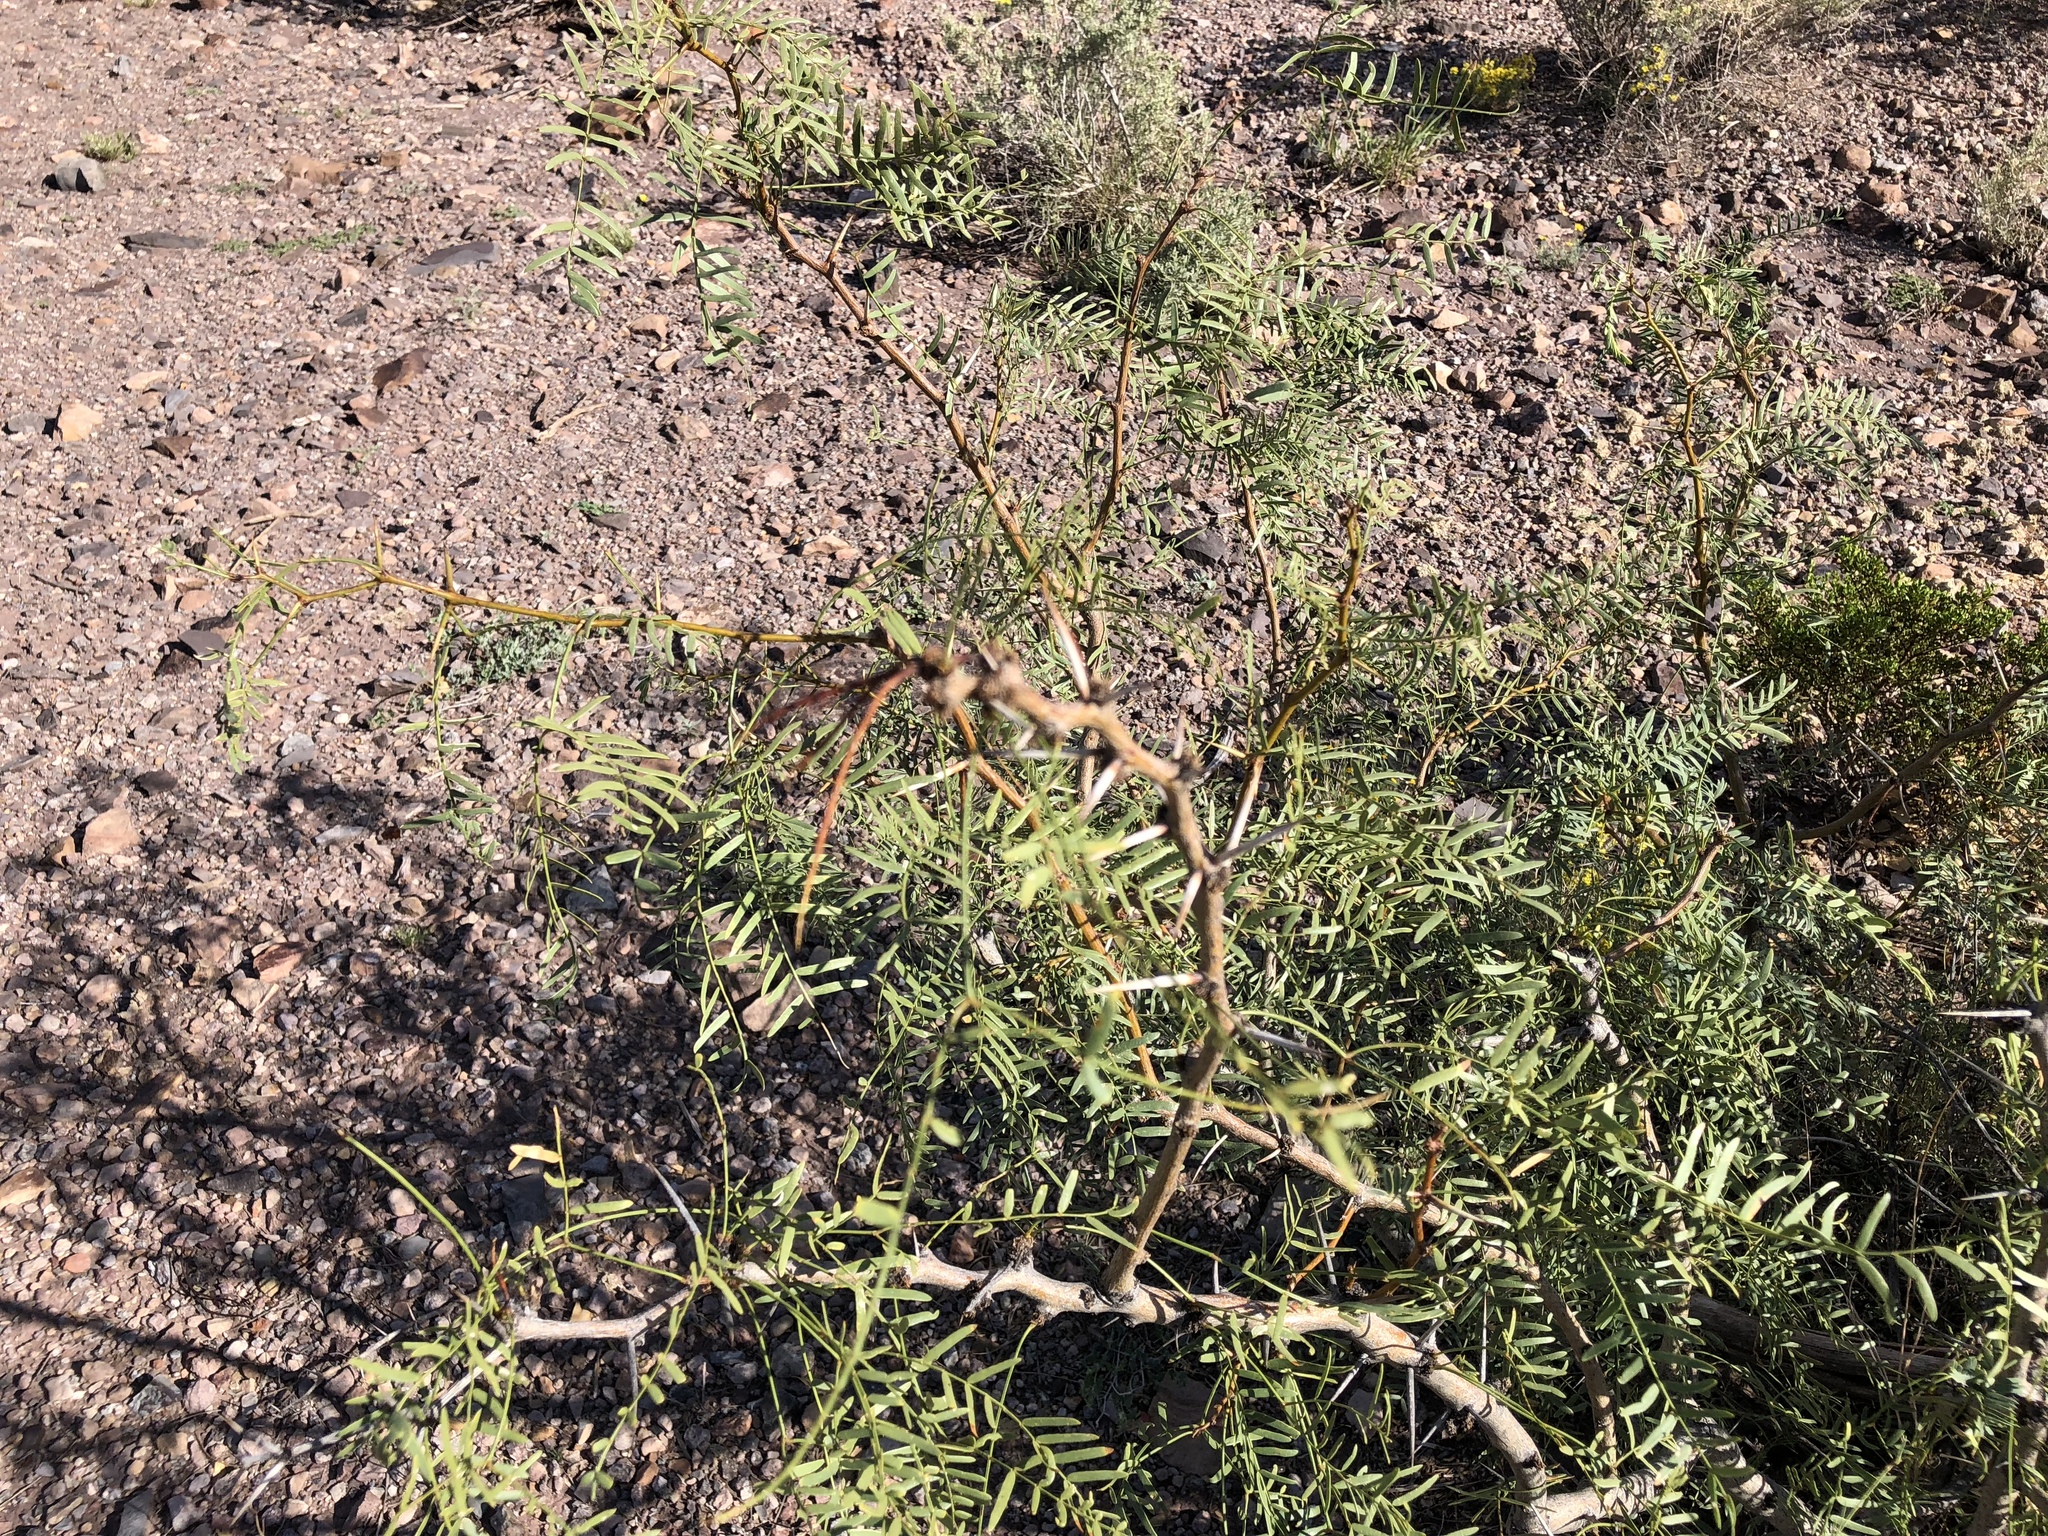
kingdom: Plantae
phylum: Tracheophyta
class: Magnoliopsida
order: Fabales
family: Fabaceae
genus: Prosopis
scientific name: Prosopis glandulosa
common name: Honey mesquite
